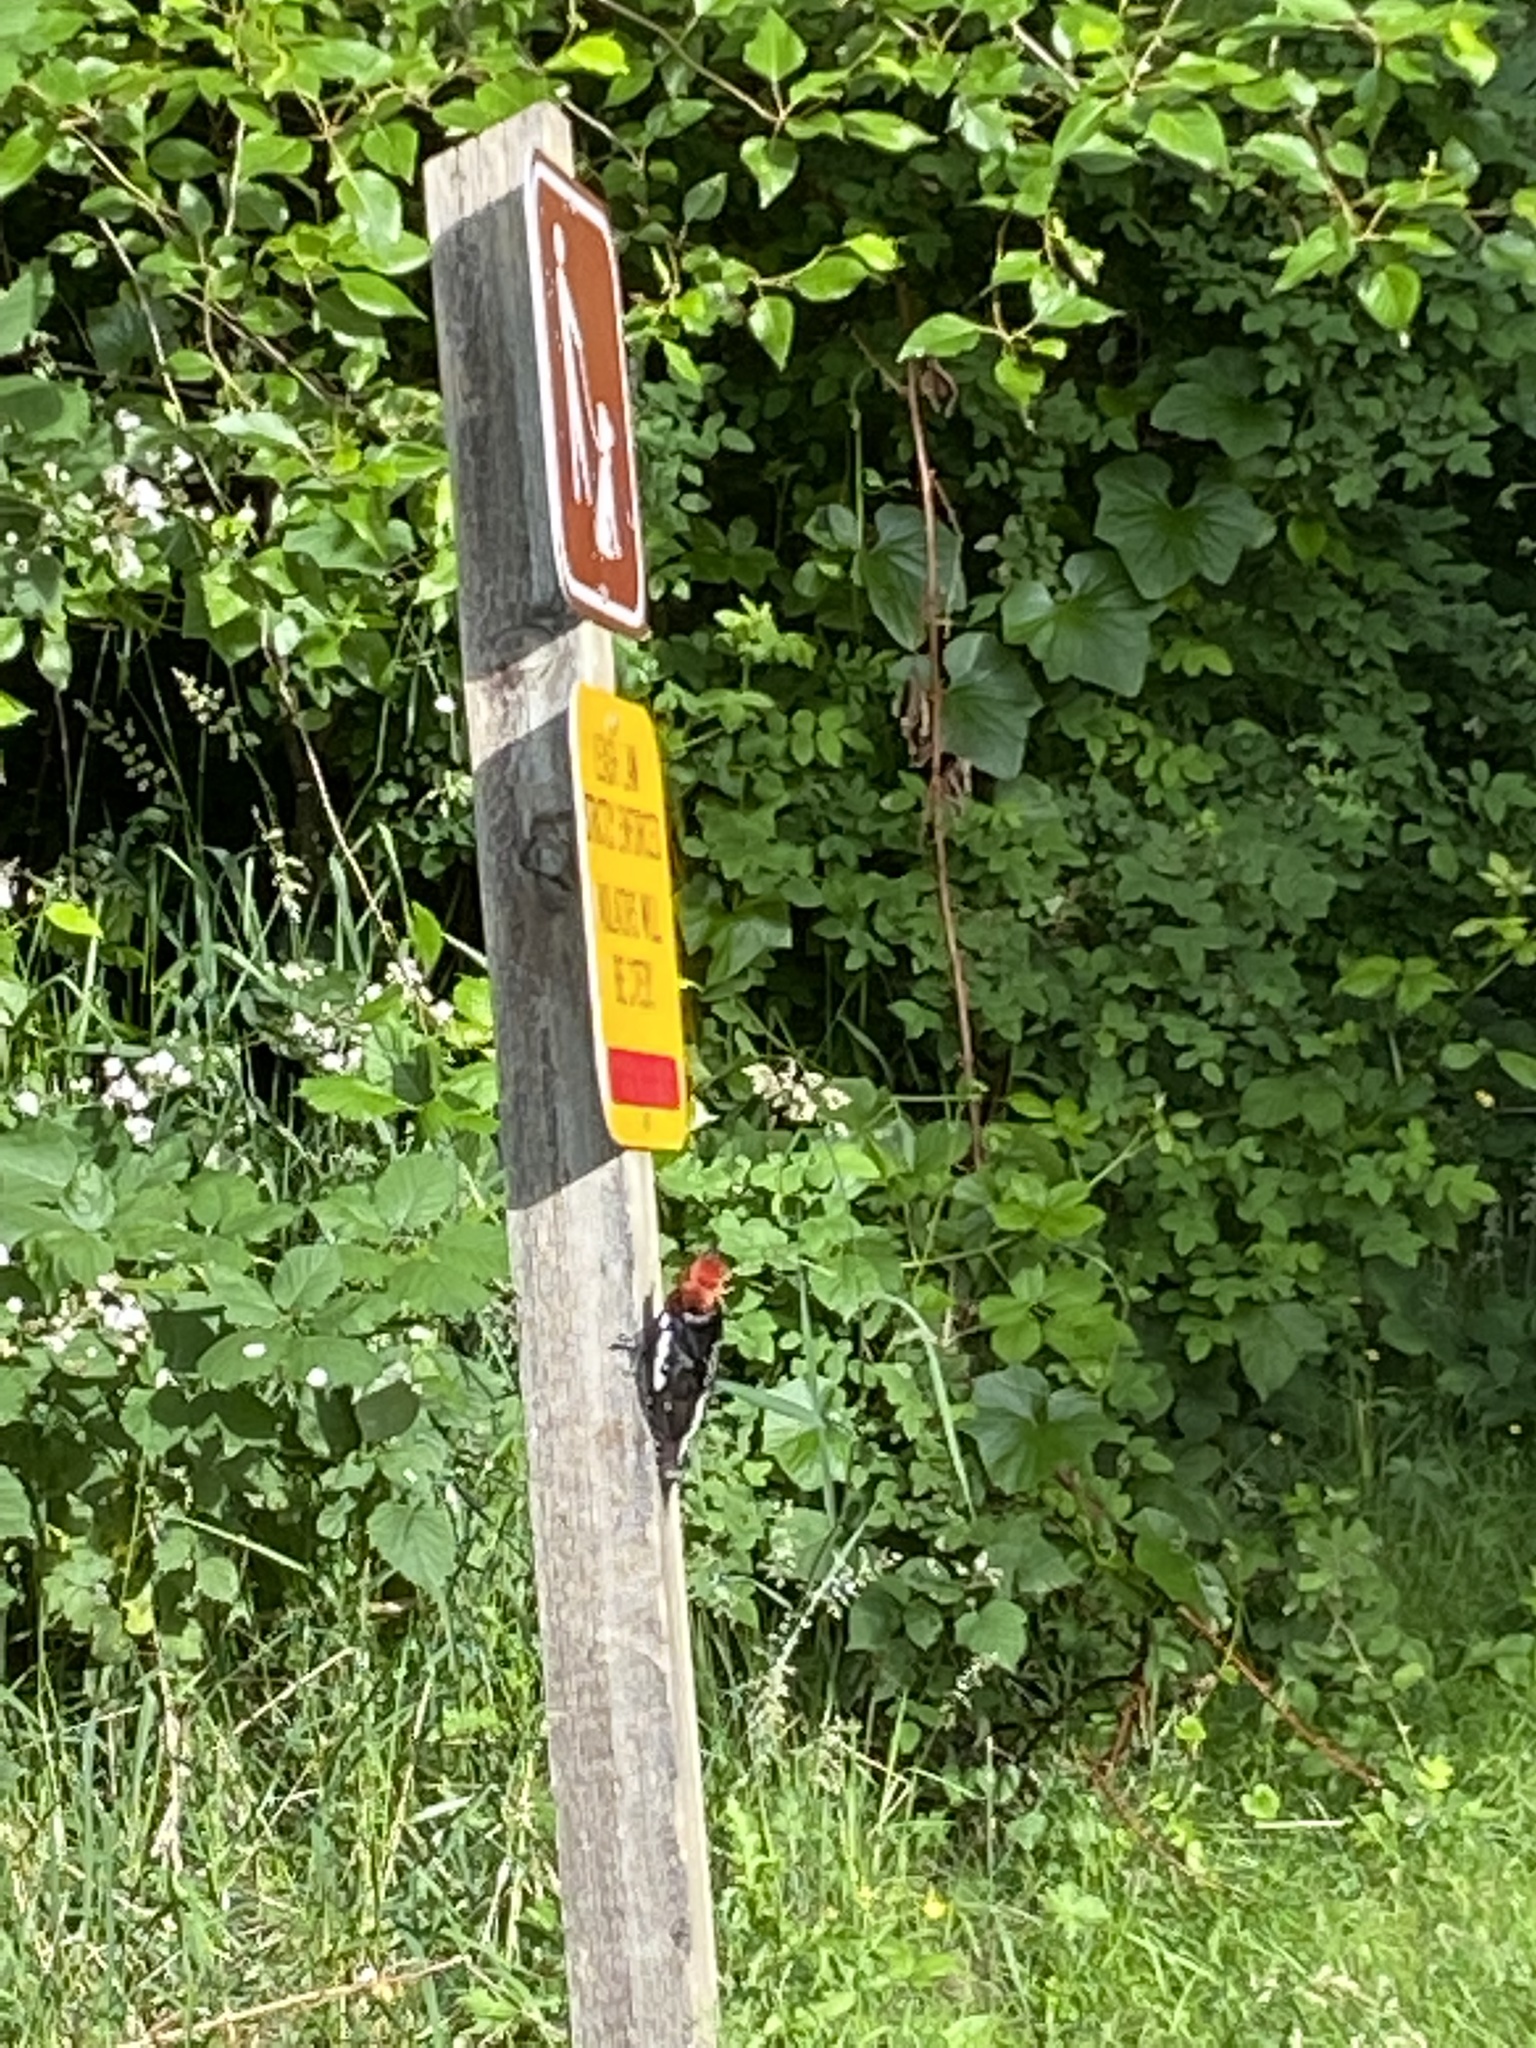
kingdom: Animalia
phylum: Chordata
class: Aves
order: Piciformes
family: Picidae
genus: Sphyrapicus
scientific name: Sphyrapicus ruber
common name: Red-breasted sapsucker
